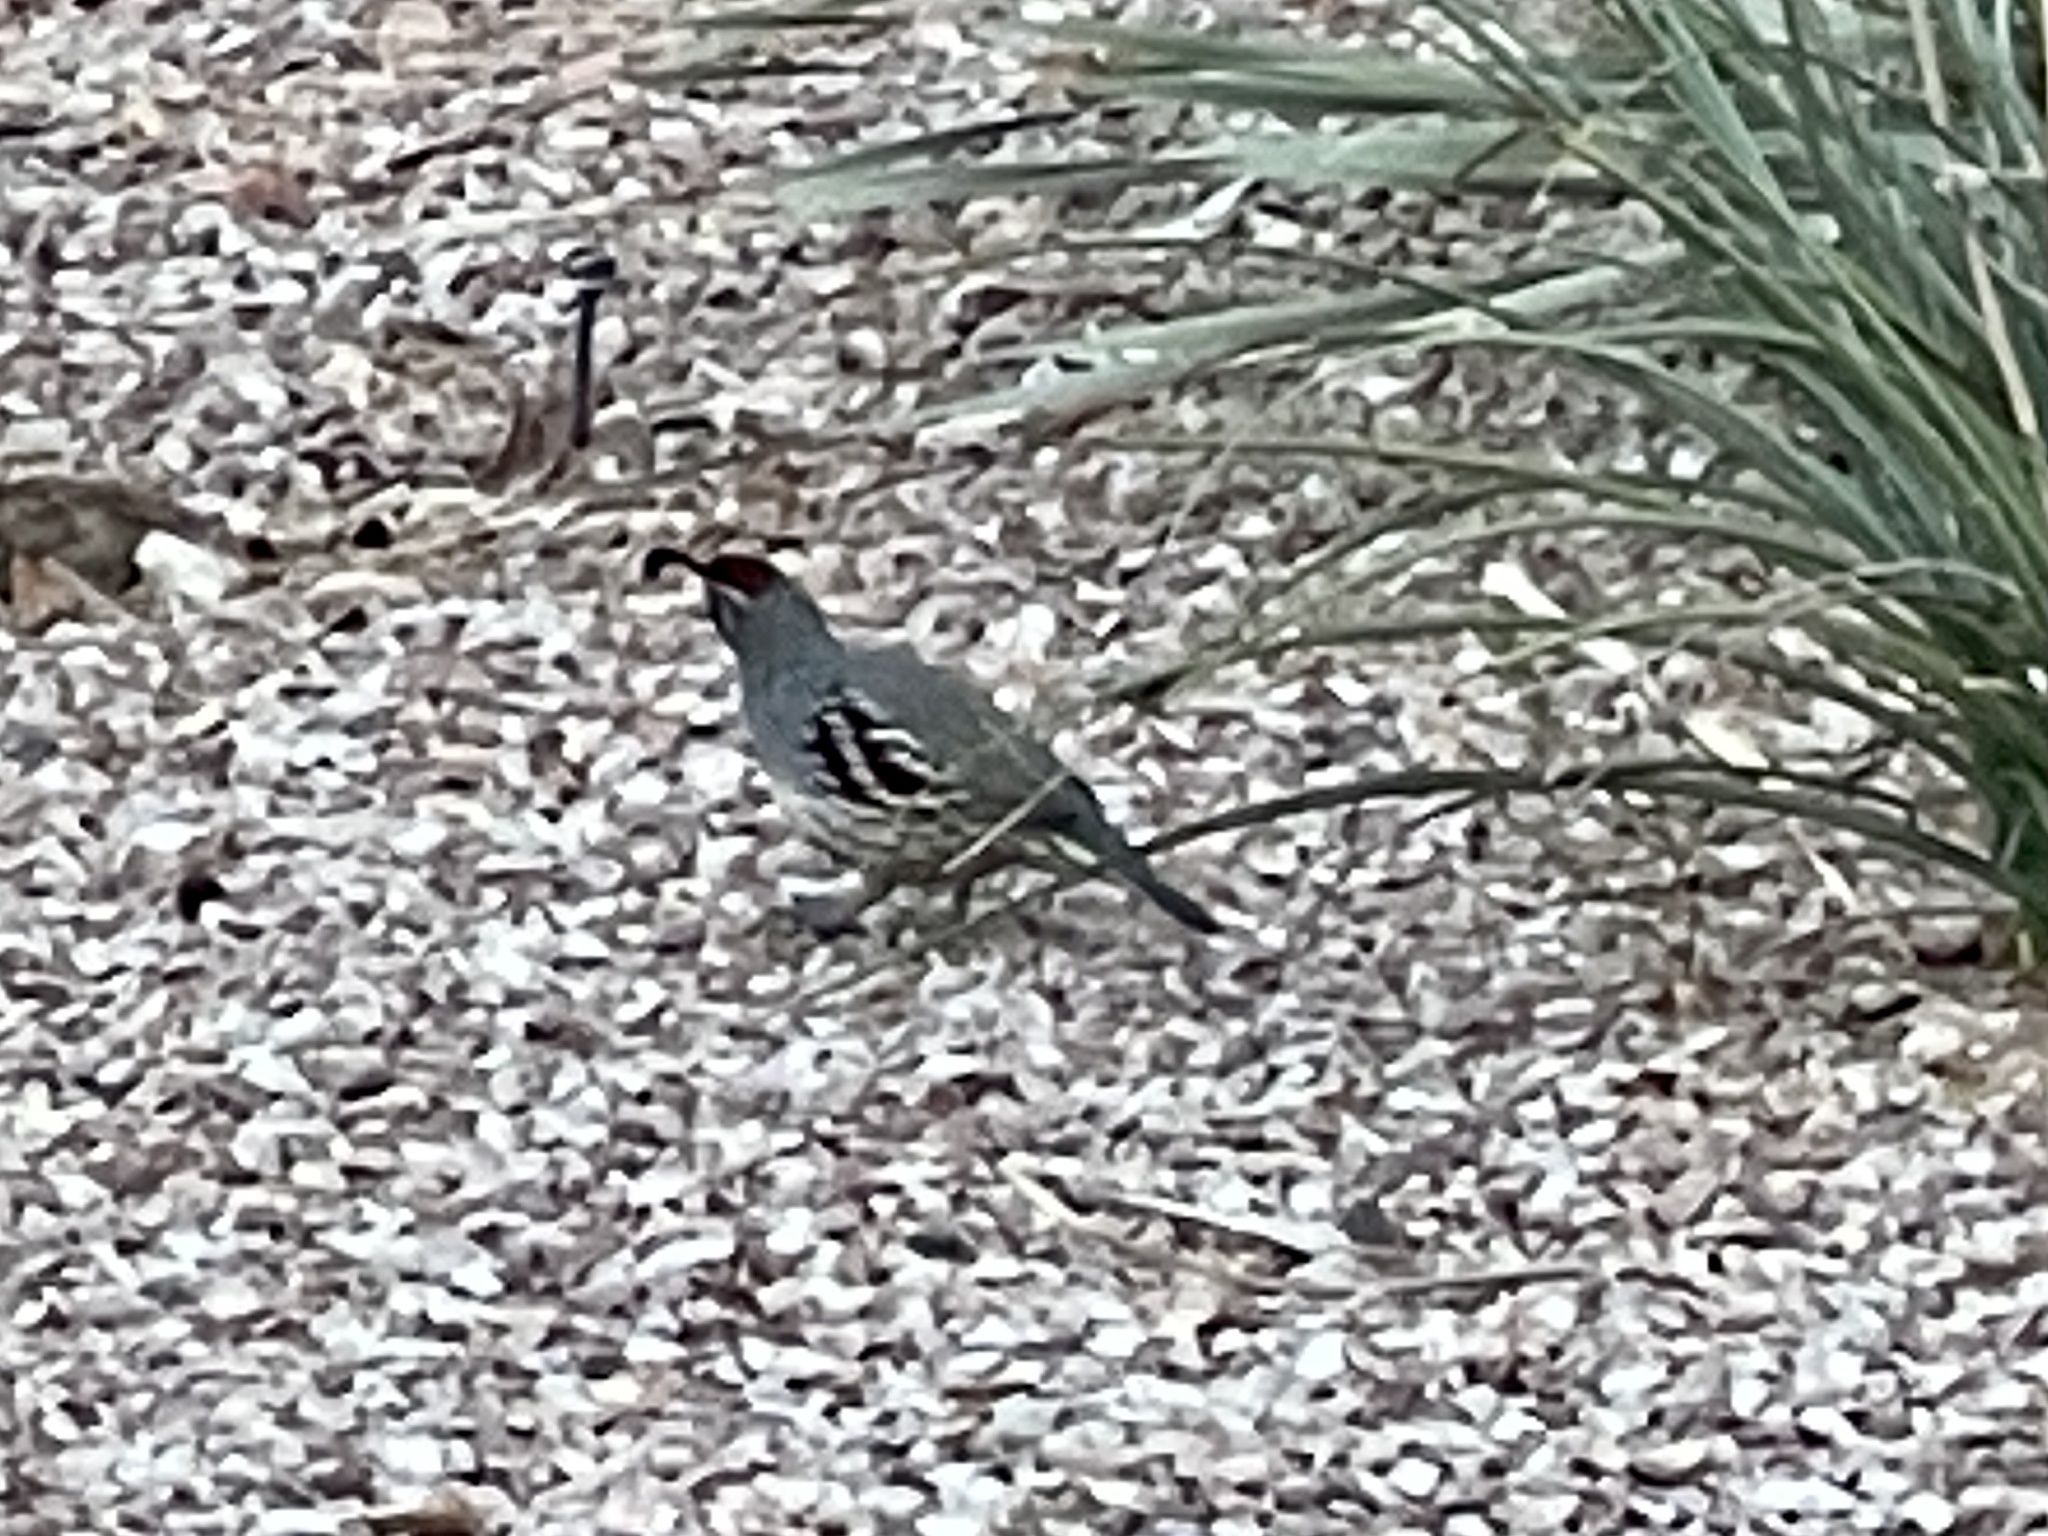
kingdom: Animalia
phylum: Chordata
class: Aves
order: Galliformes
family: Odontophoridae
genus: Callipepla
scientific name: Callipepla gambelii
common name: Gambel's quail
